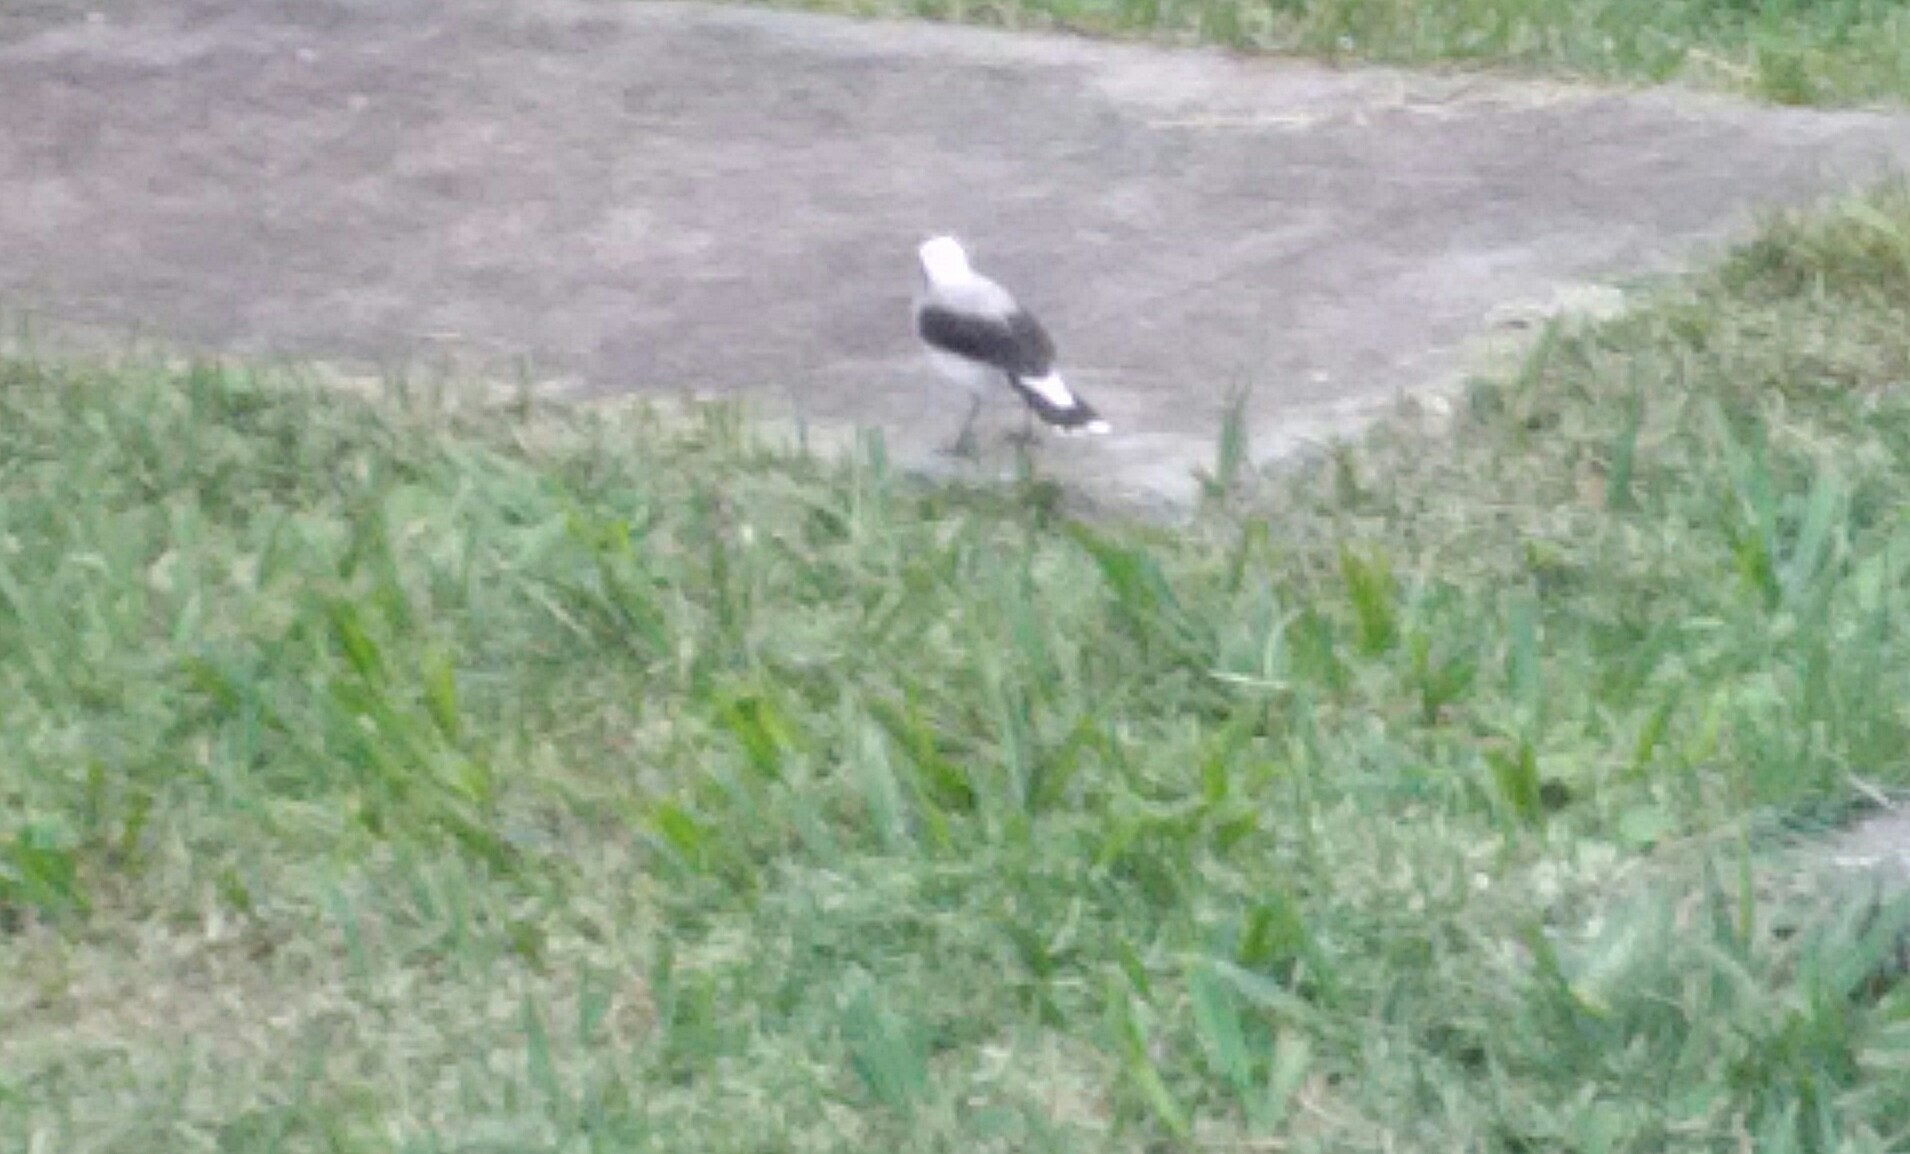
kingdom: Animalia
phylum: Chordata
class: Aves
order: Passeriformes
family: Tyrannidae
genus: Fluvicola
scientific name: Fluvicola nengeta
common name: Masked water tyrant
